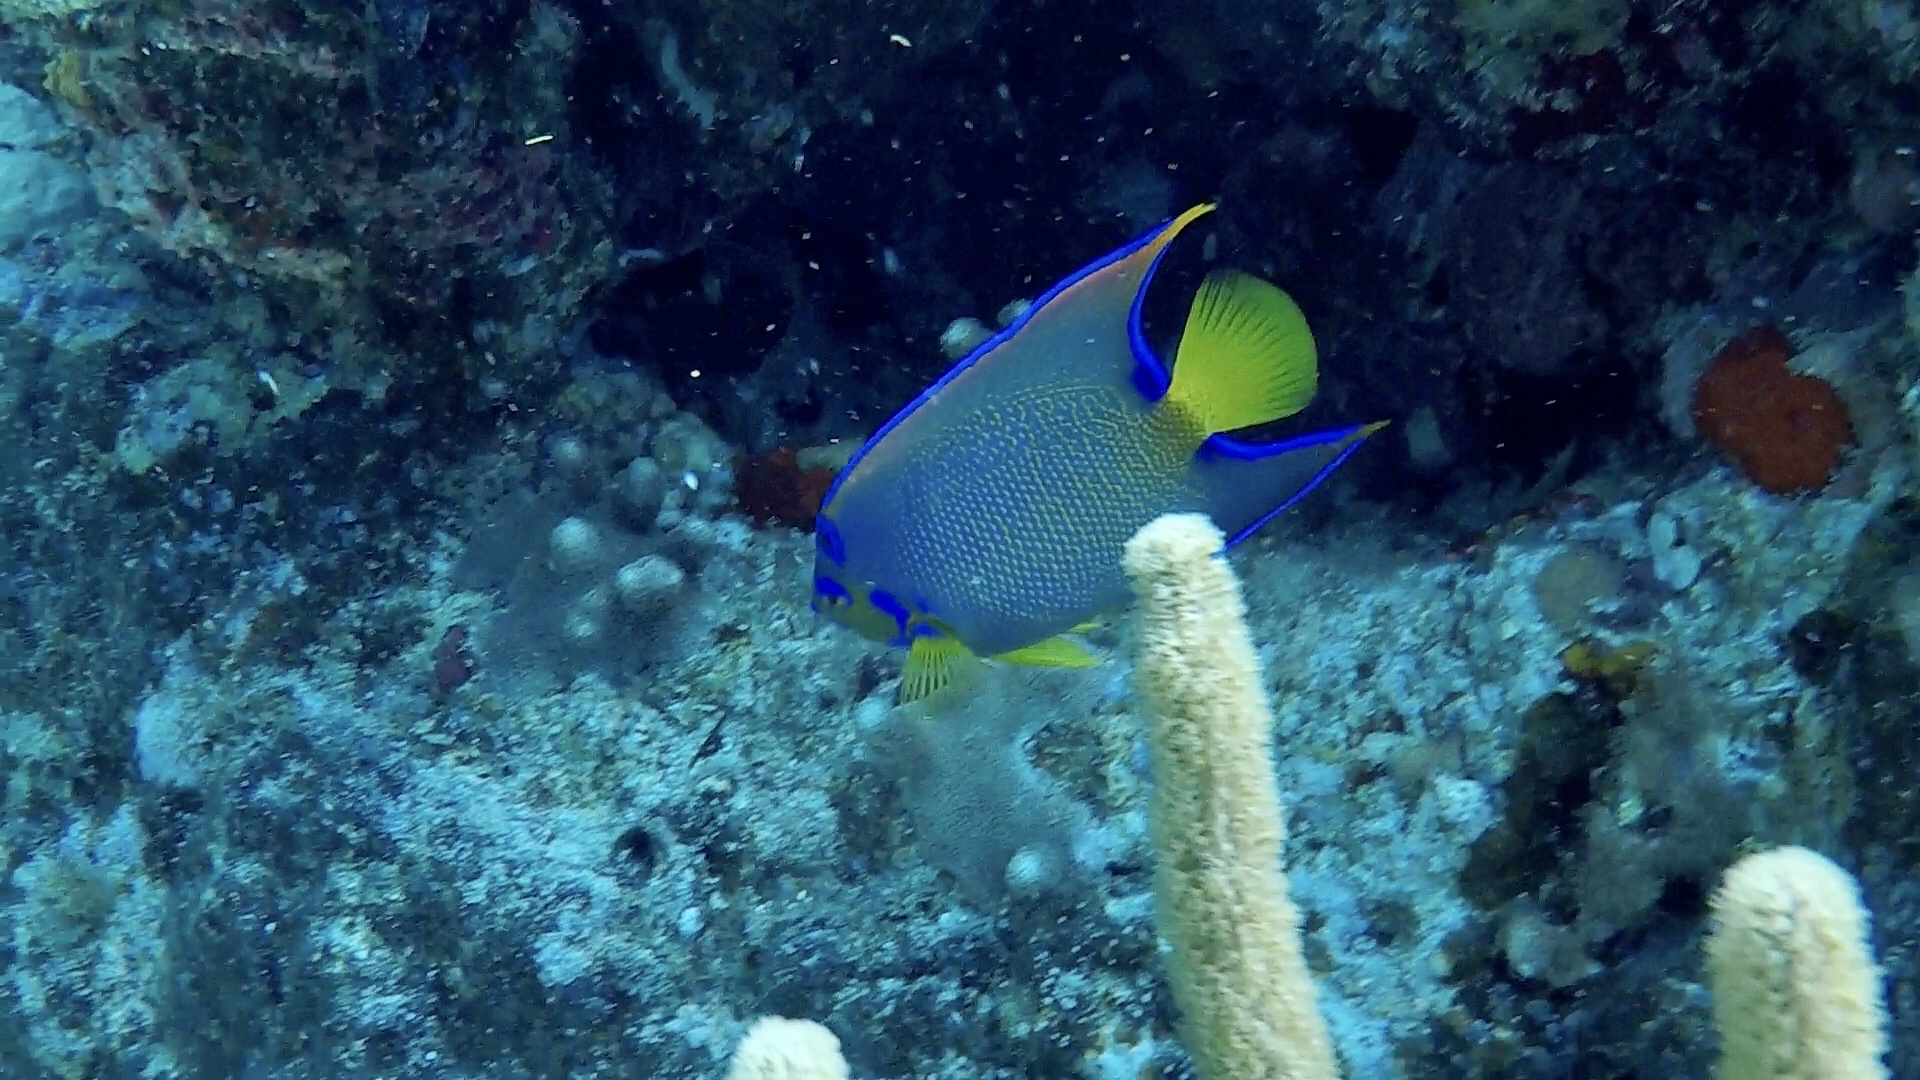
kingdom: Animalia
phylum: Chordata
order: Perciformes
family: Pomacanthidae
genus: Holacanthus
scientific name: Holacanthus ciliaris
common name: Queen angelfish
